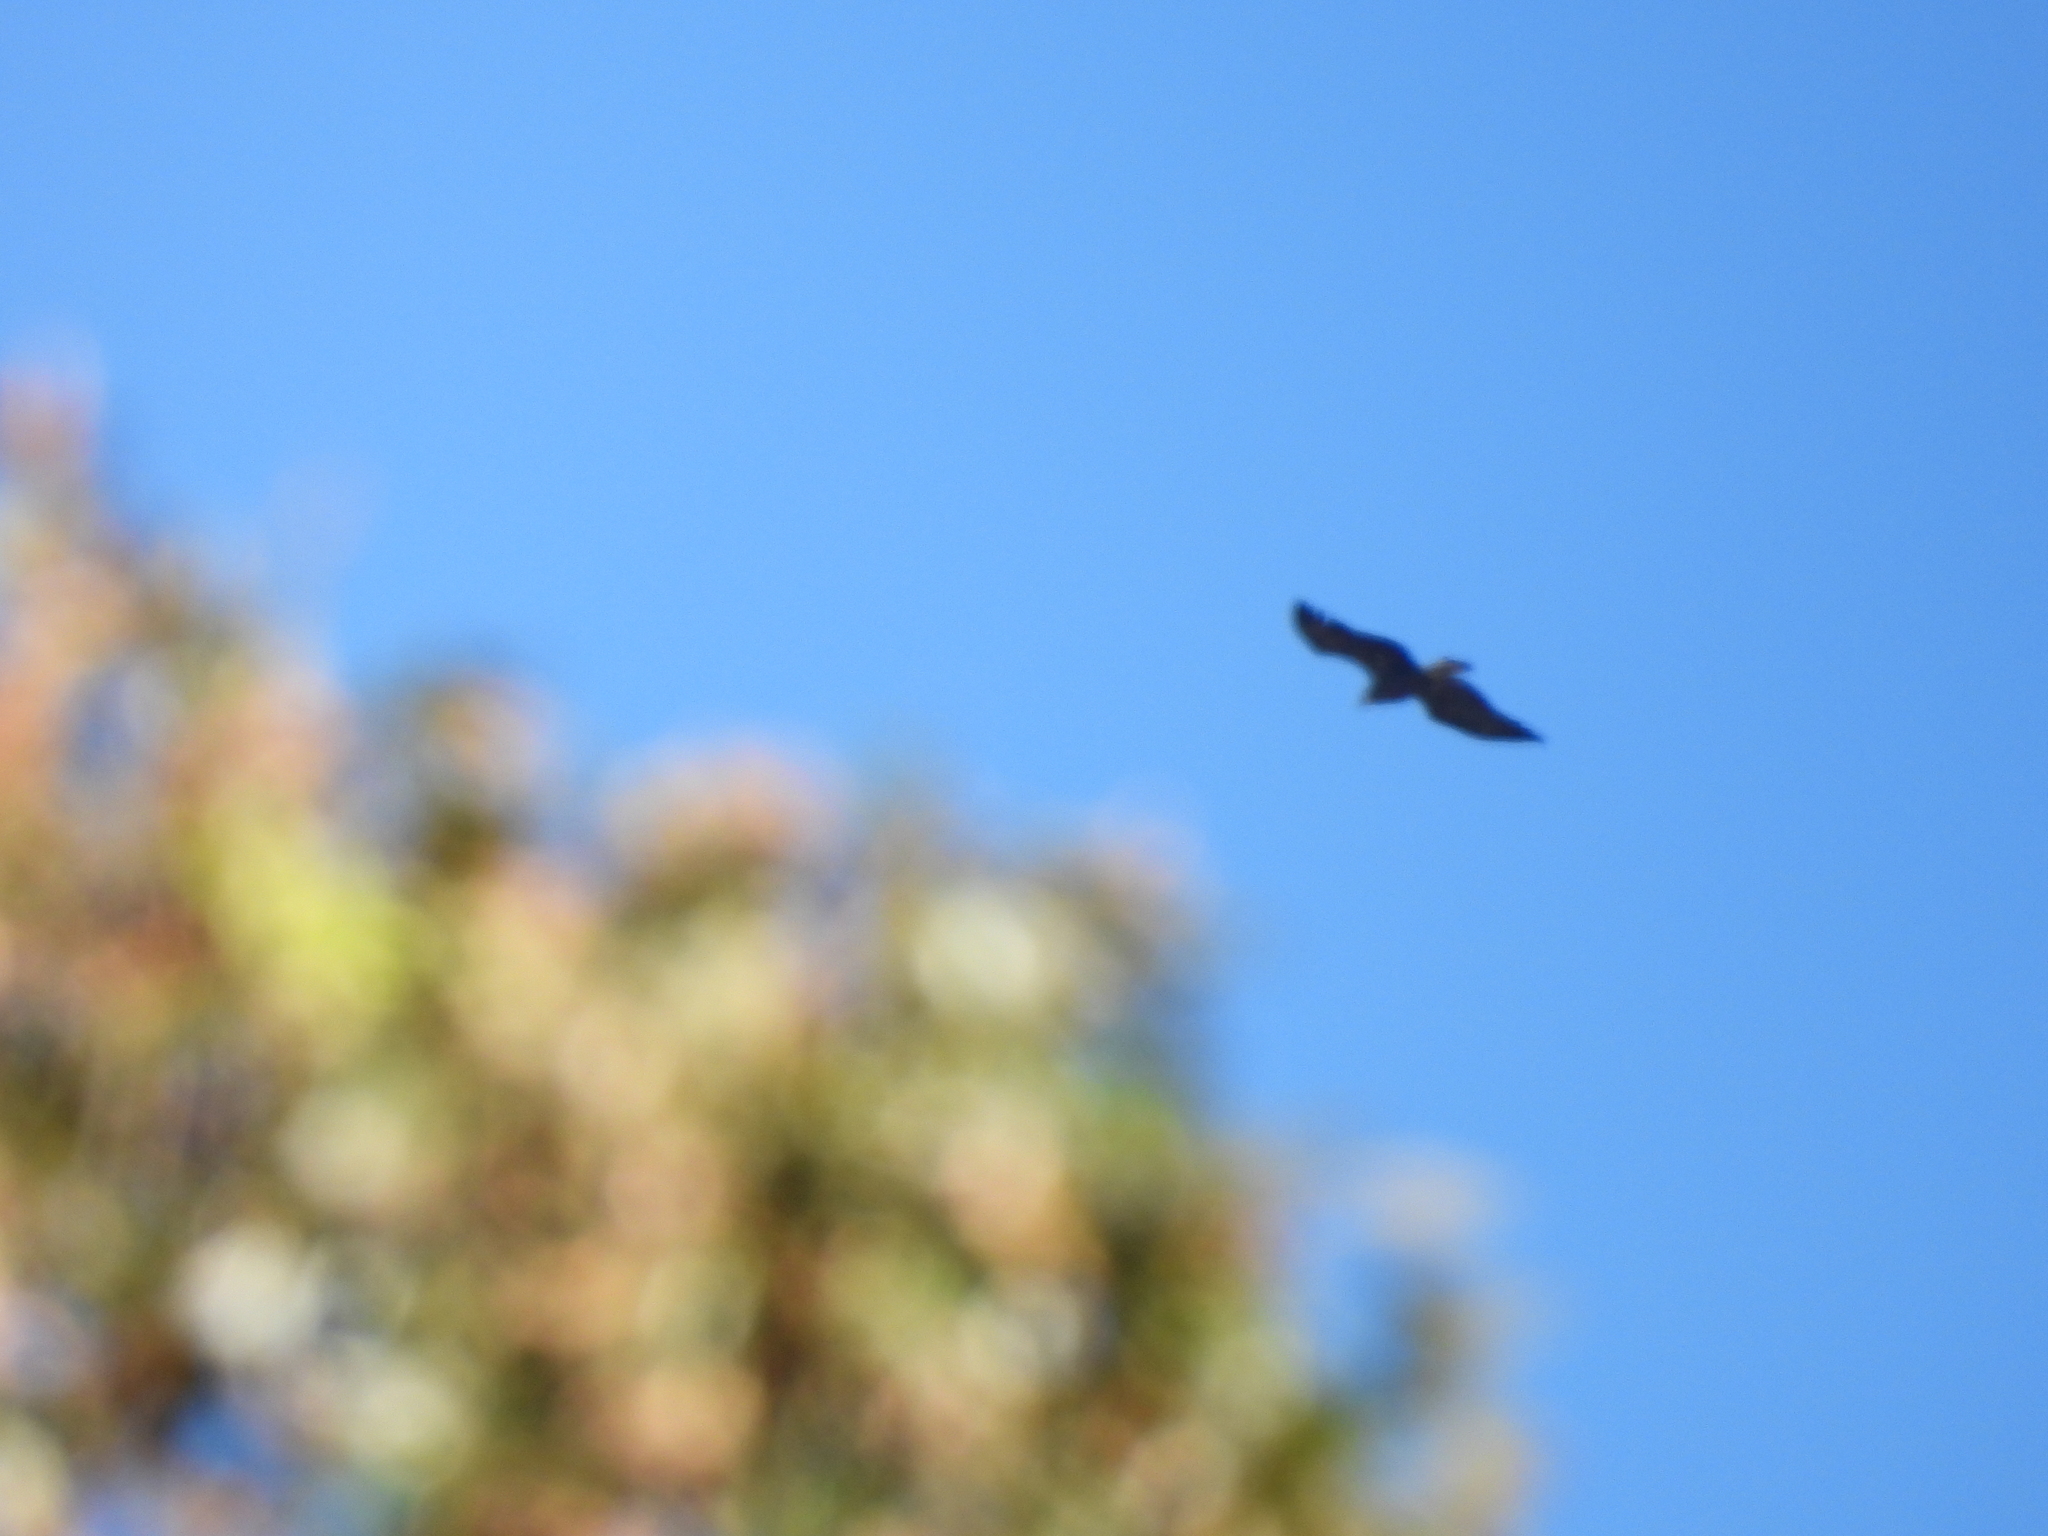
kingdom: Animalia
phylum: Chordata
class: Aves
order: Accipitriformes
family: Accipitridae
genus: Haliaeetus
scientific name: Haliaeetus leucocephalus
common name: Bald eagle
